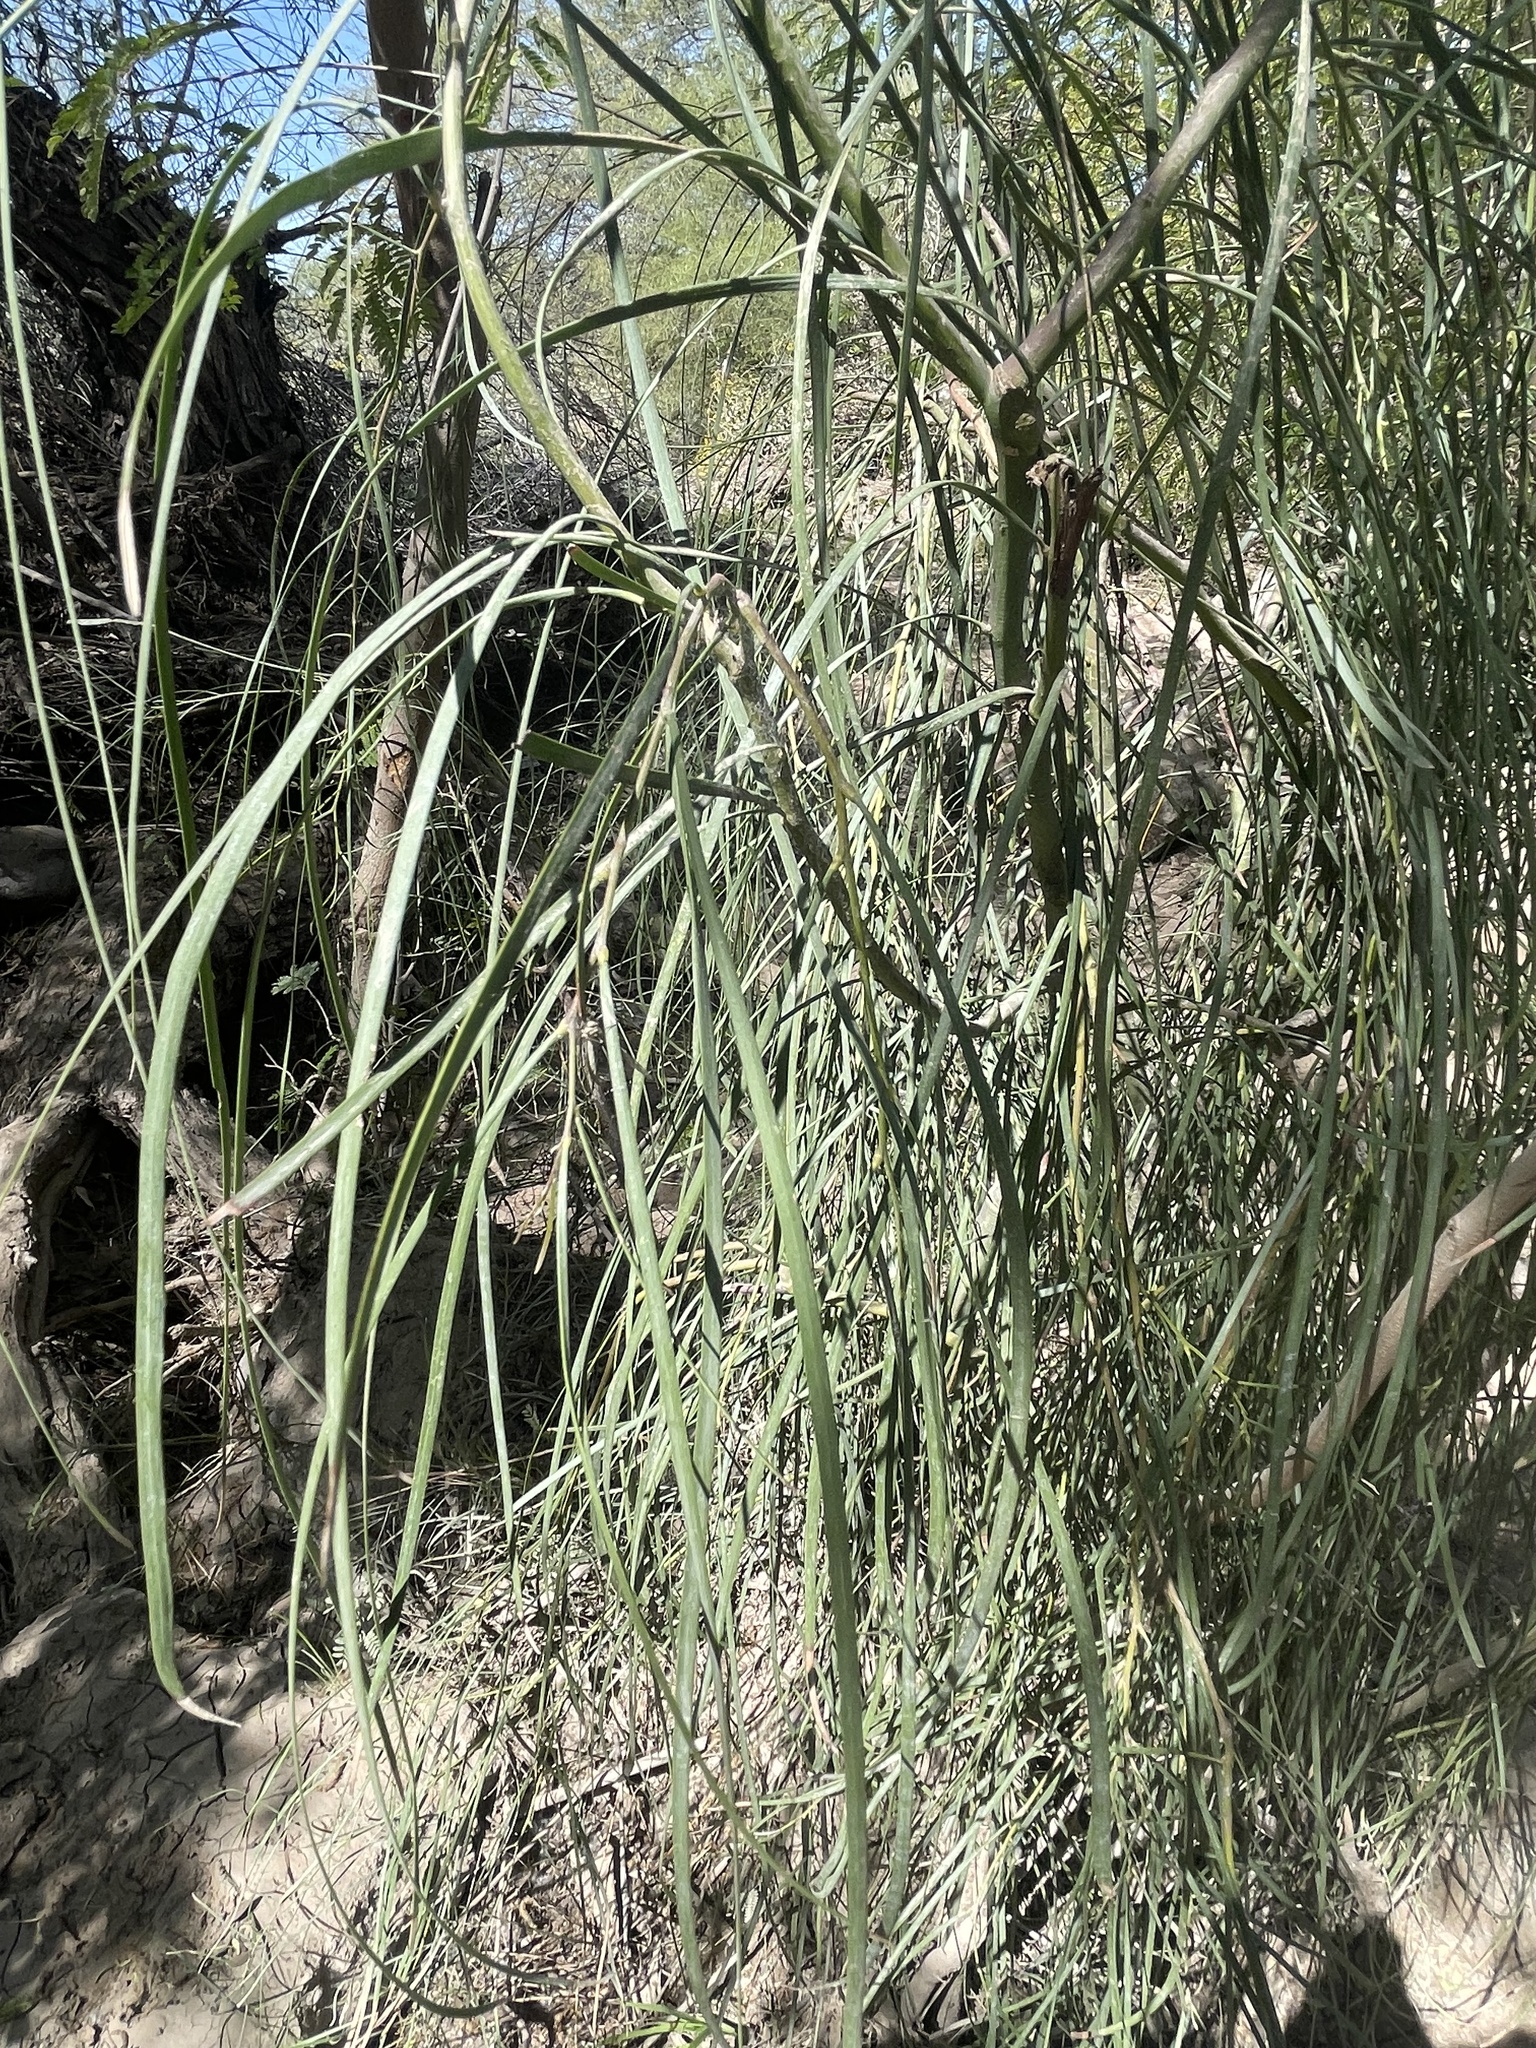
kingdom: Plantae
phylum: Tracheophyta
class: Magnoliopsida
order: Fabales
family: Fabaceae
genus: Acacia
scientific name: Acacia stenophylla
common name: River cooba
